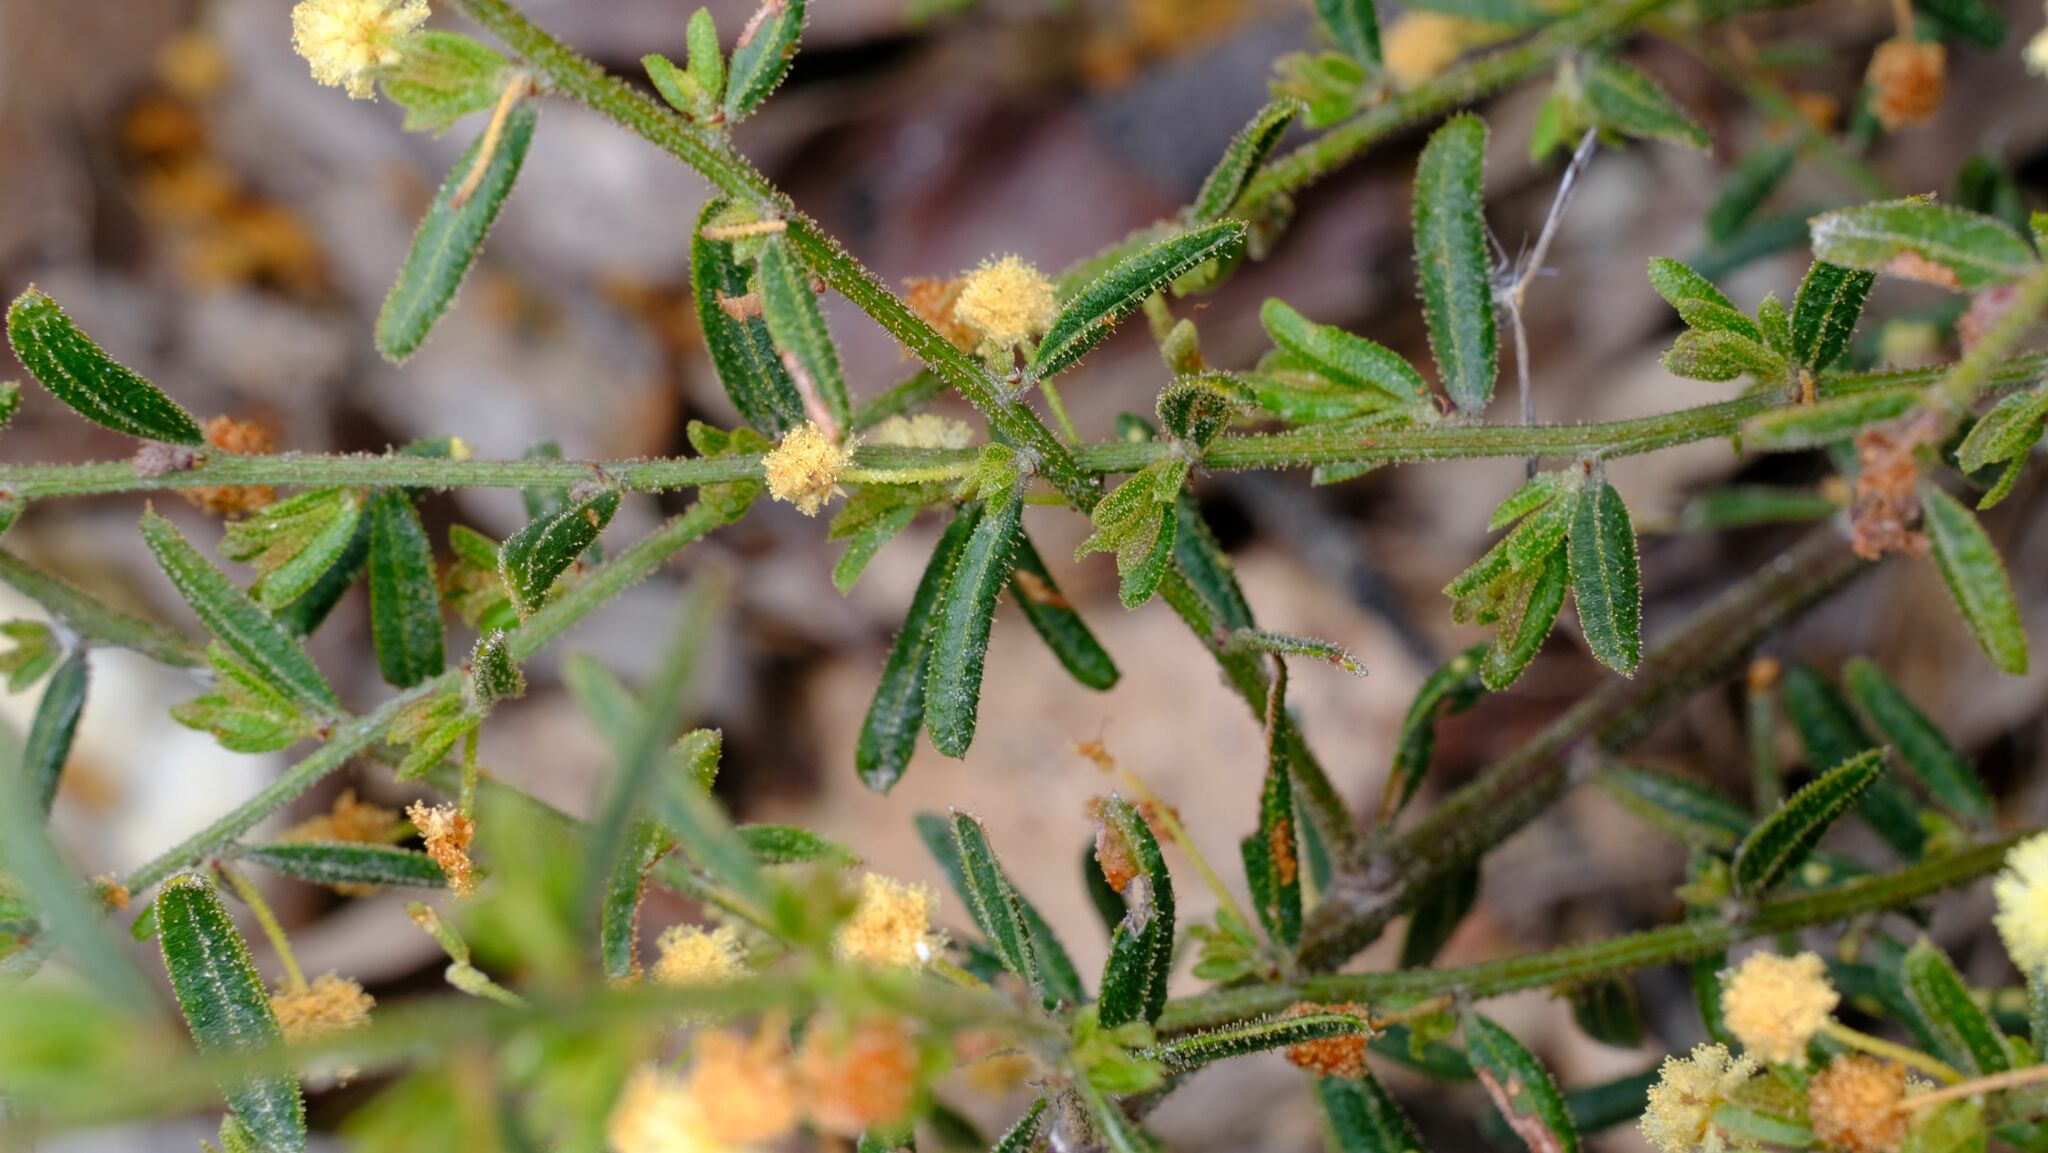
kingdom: Plantae
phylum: Tracheophyta
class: Magnoliopsida
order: Fabales
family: Fabaceae
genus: Acacia
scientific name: Acacia aspera
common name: Rough wattle
